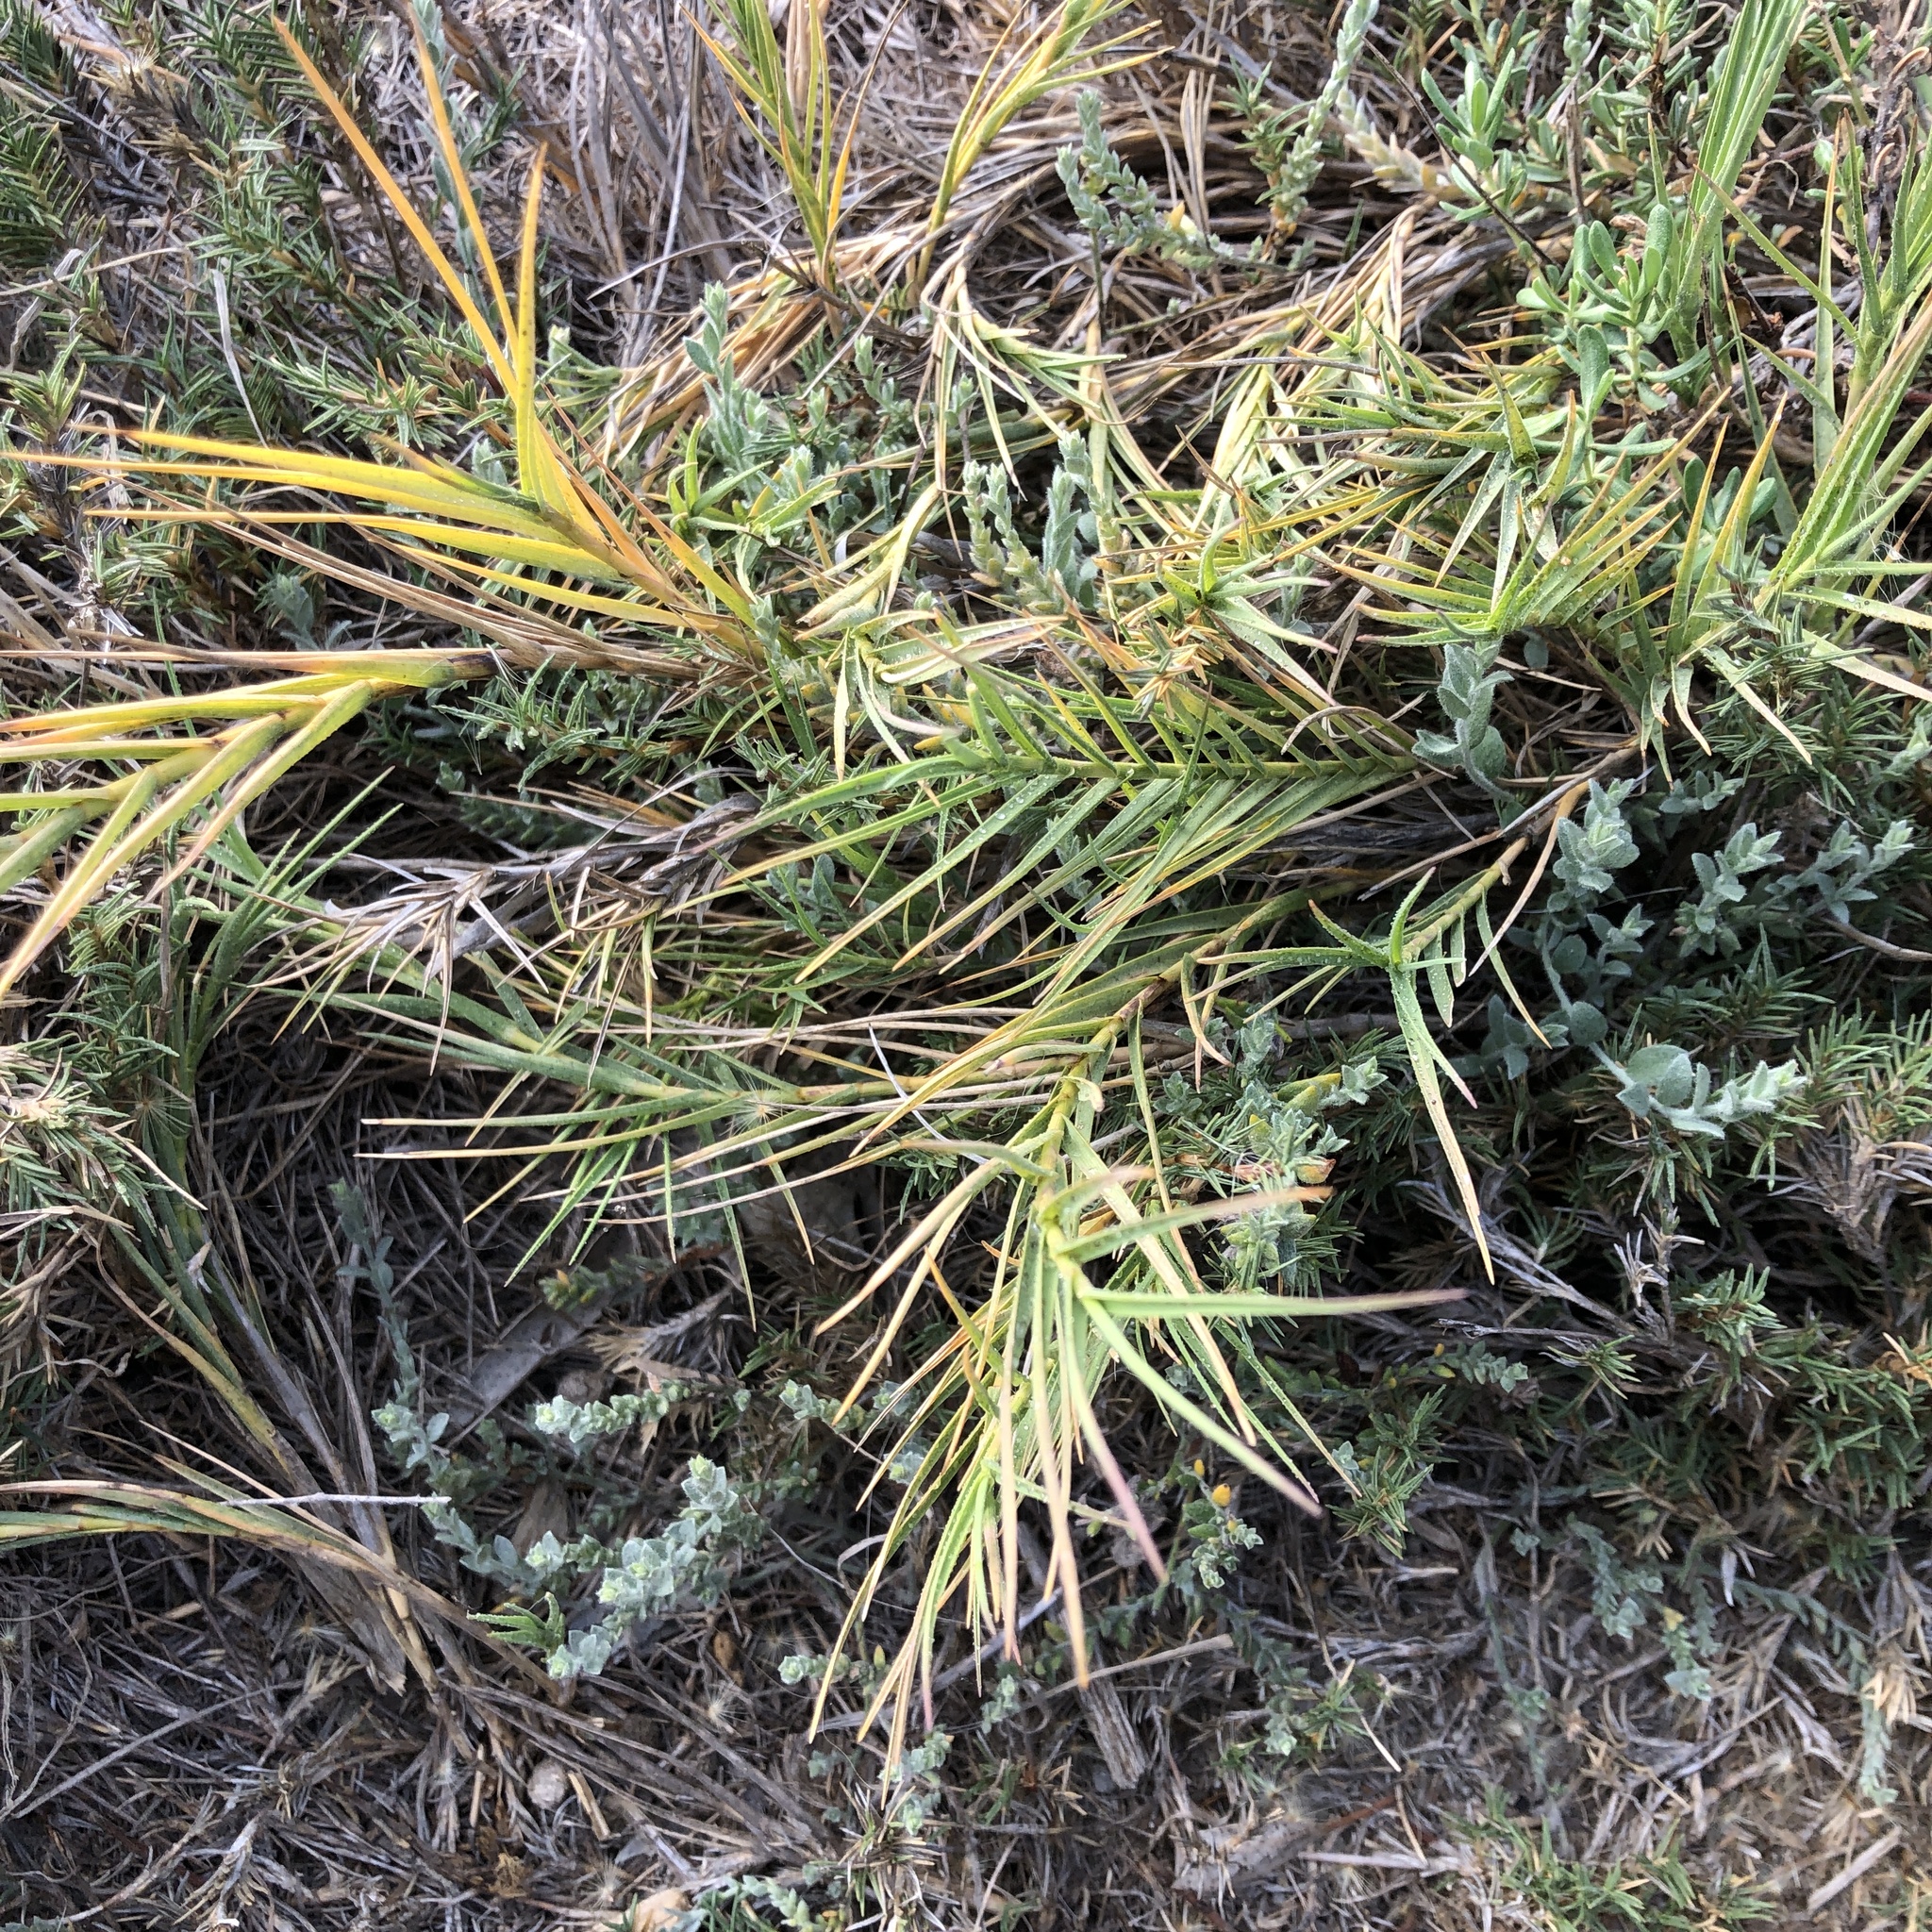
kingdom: Plantae
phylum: Tracheophyta
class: Liliopsida
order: Poales
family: Poaceae
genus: Distichlis
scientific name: Distichlis spicata
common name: Saltgrass
